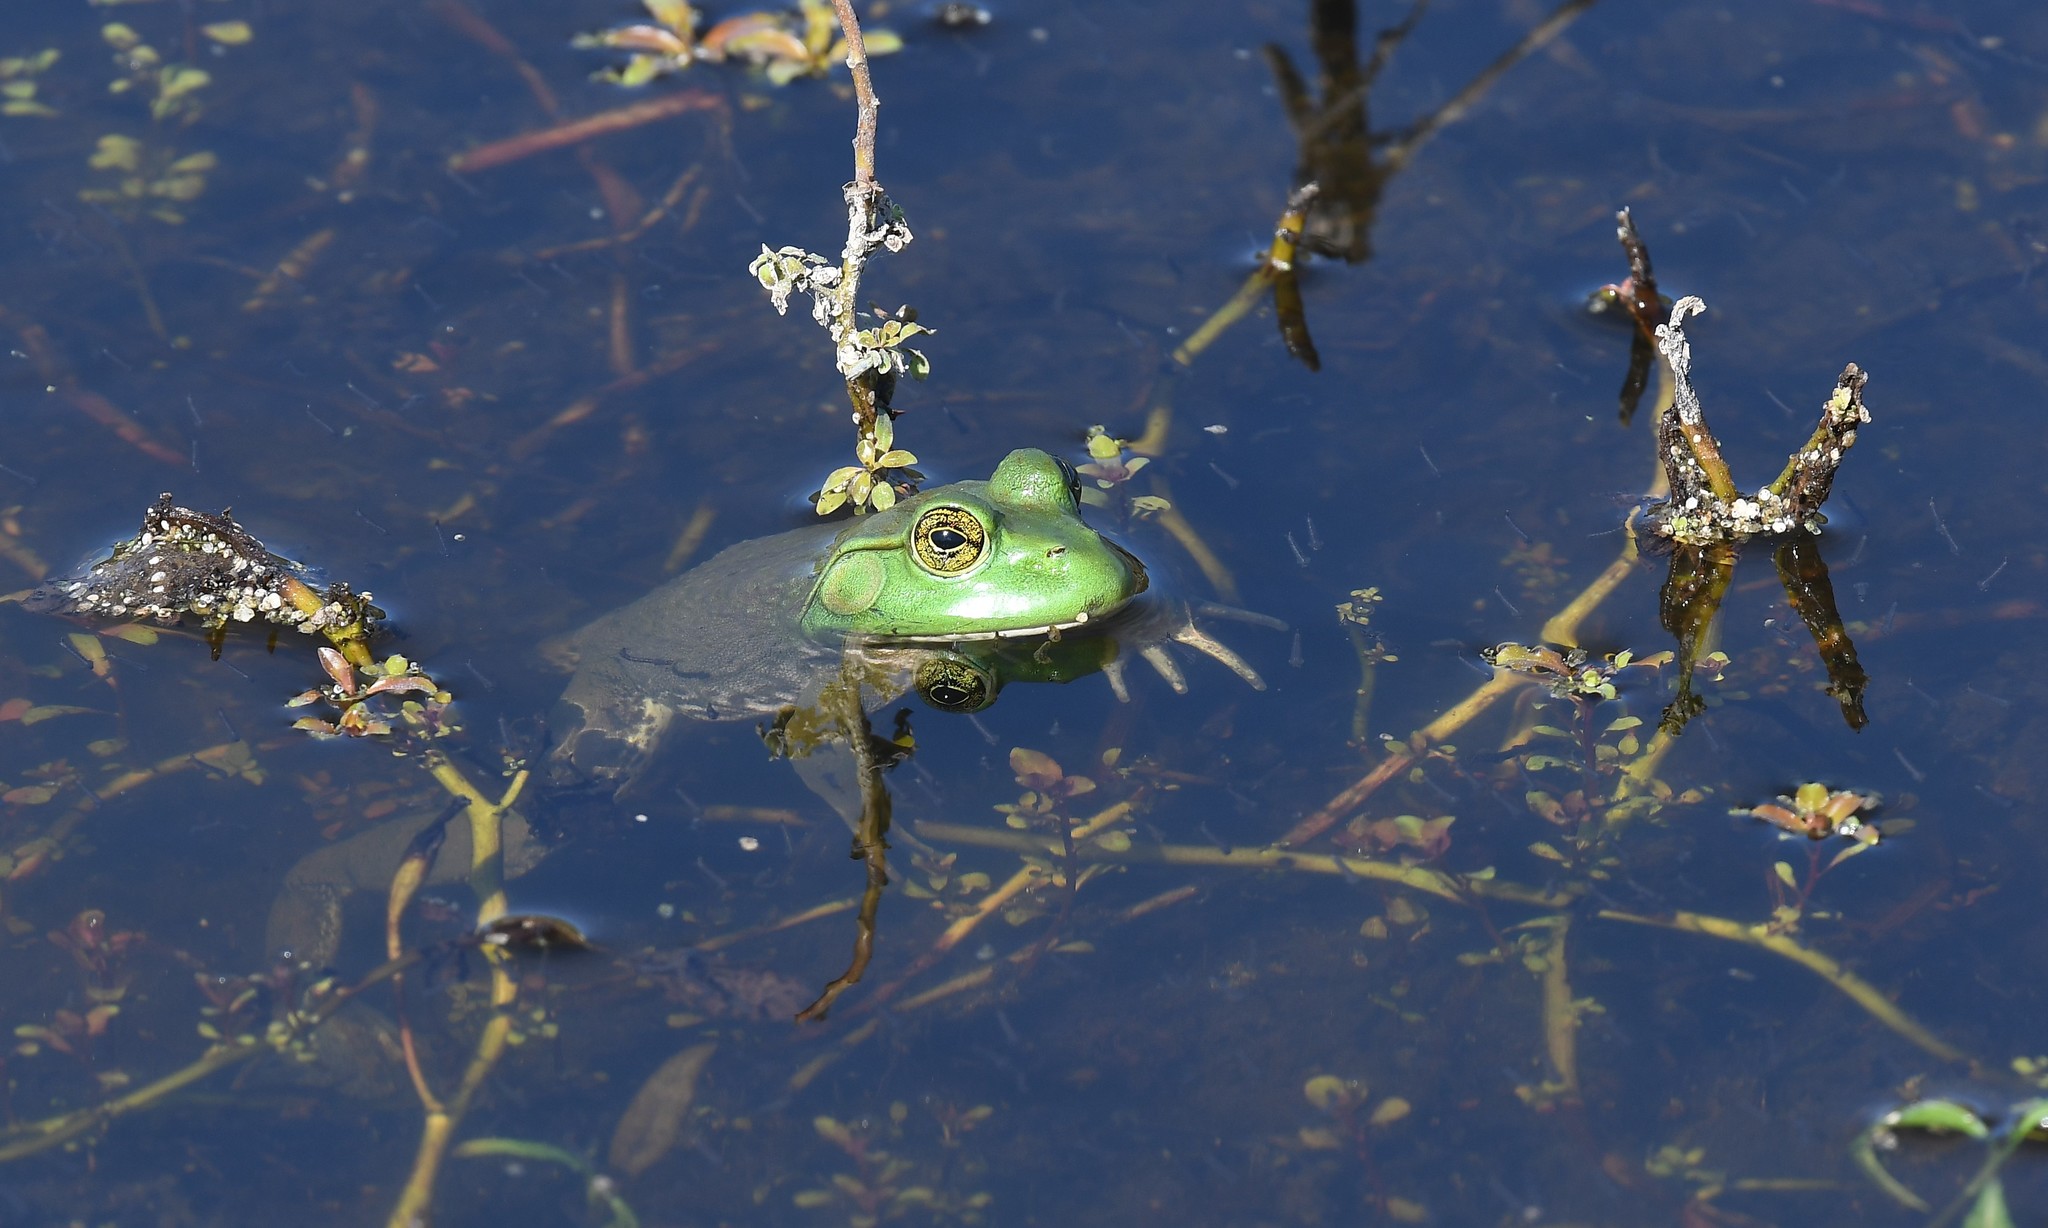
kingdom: Animalia
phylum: Chordata
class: Amphibia
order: Anura
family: Ranidae
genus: Lithobates
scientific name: Lithobates catesbeianus
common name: American bullfrog
